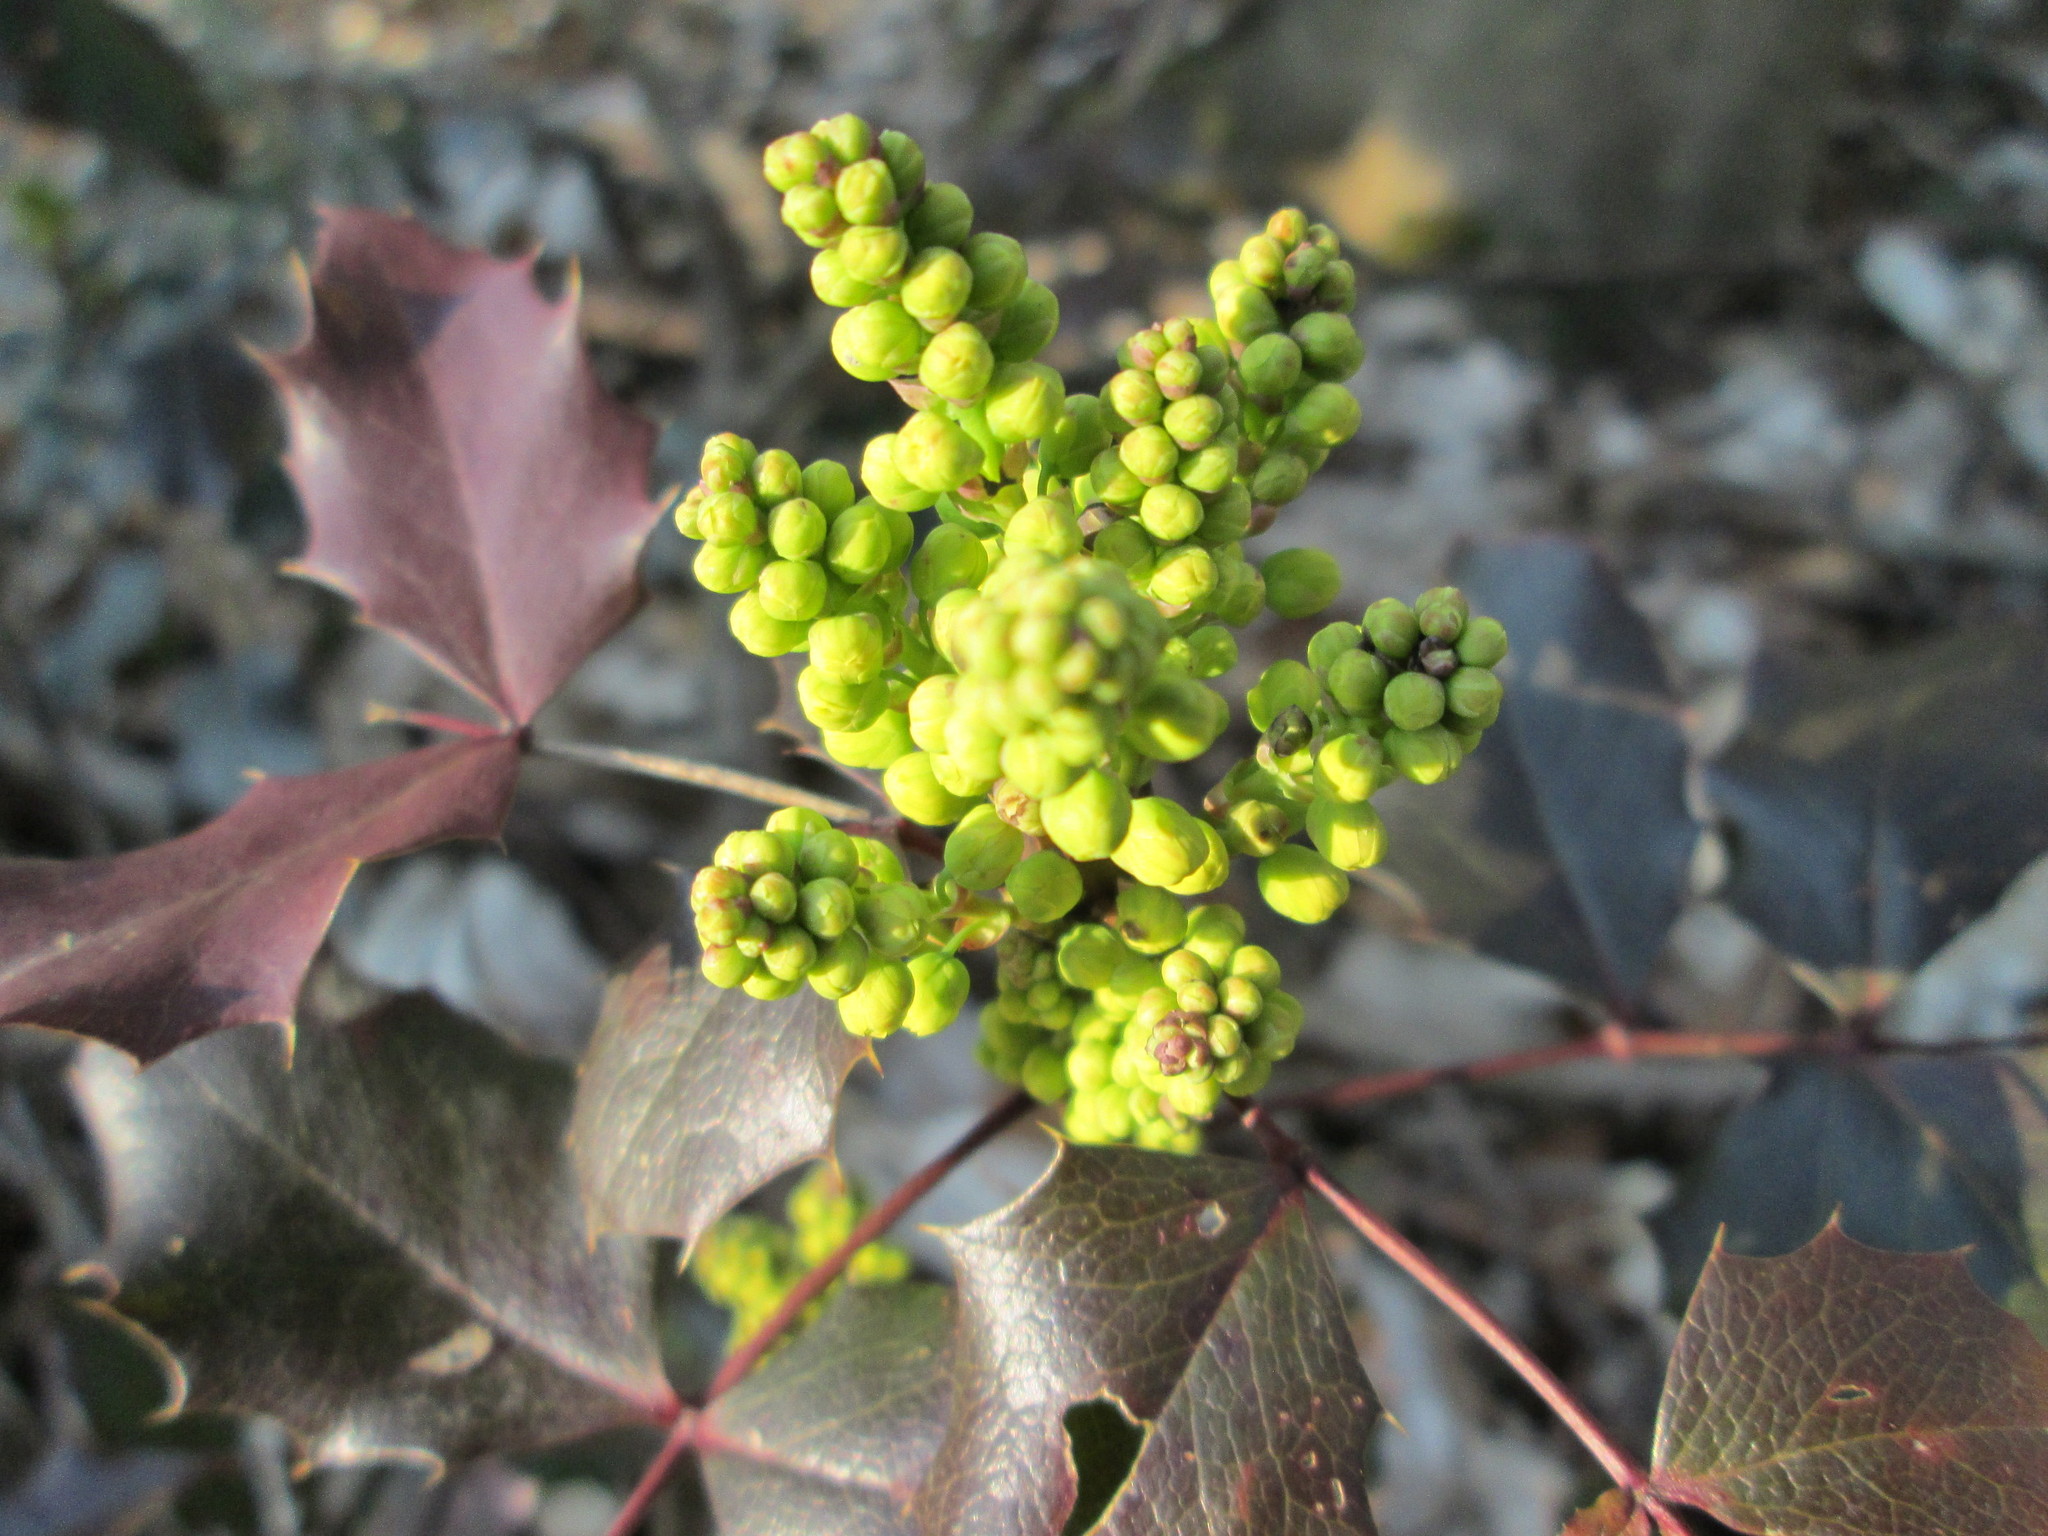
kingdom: Plantae
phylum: Tracheophyta
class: Magnoliopsida
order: Ranunculales
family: Berberidaceae
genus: Mahonia
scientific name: Mahonia aquifolium
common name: Oregon-grape
